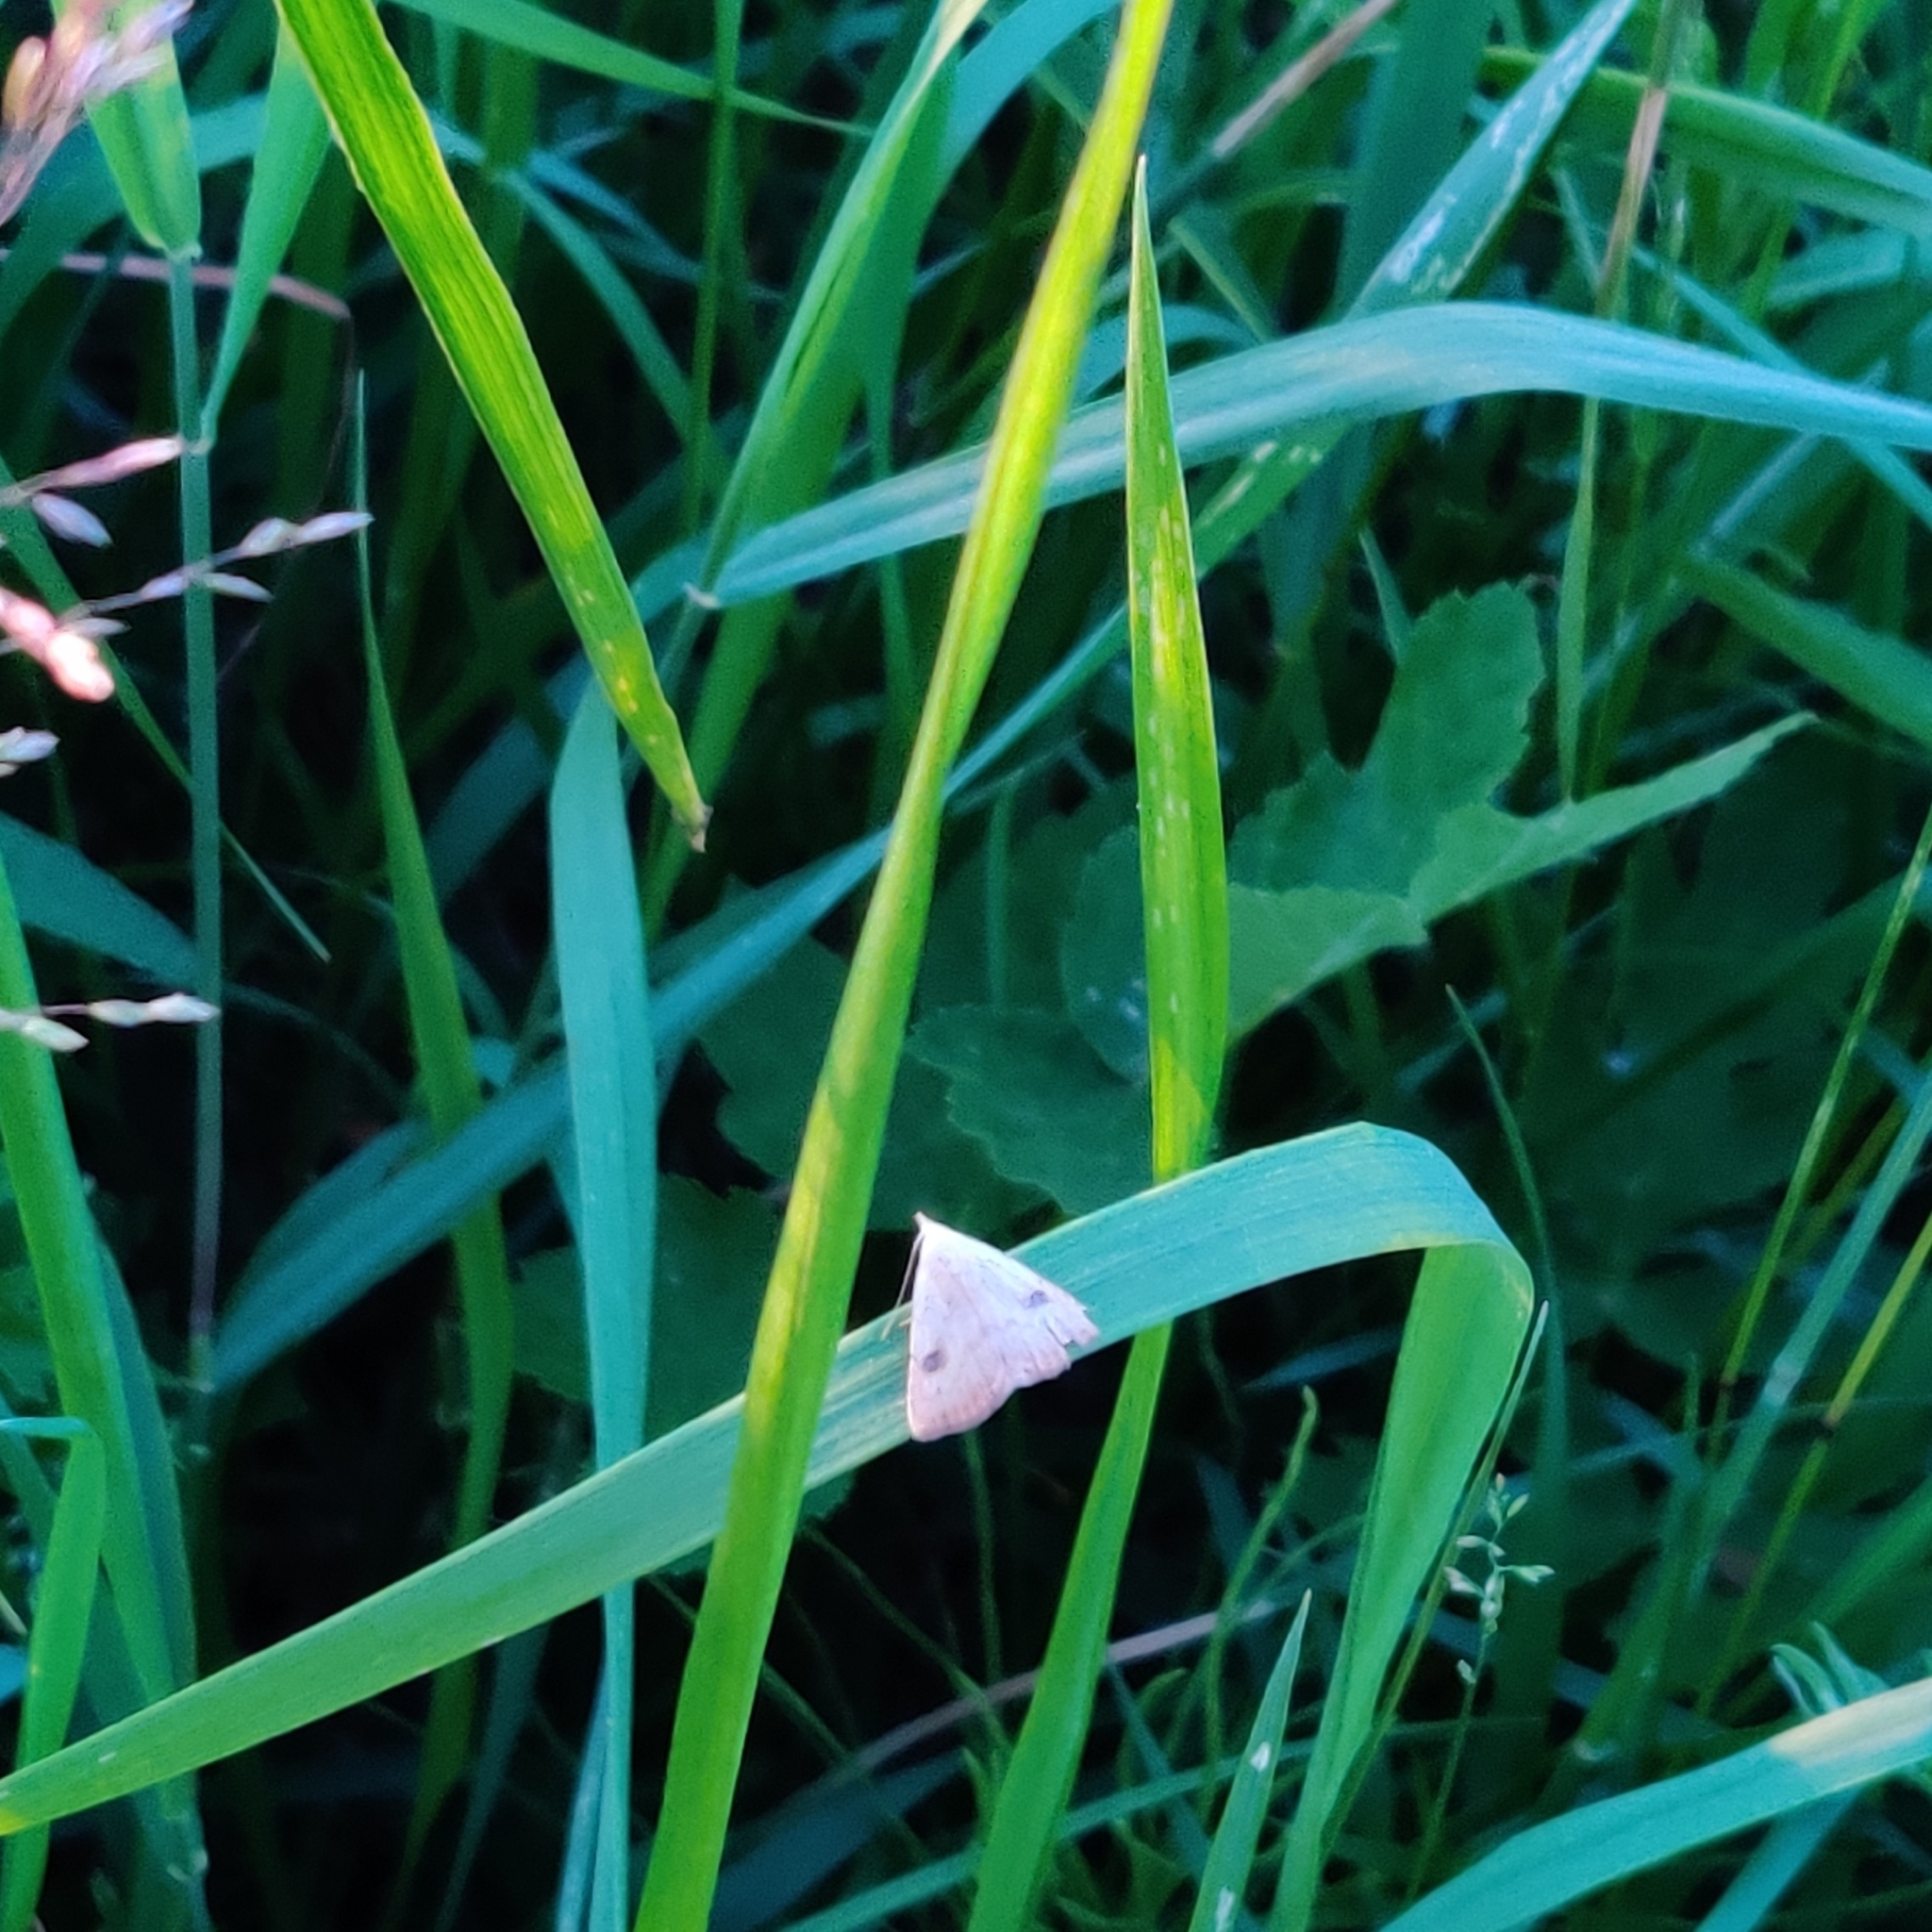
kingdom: Animalia
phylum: Arthropoda
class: Insecta
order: Lepidoptera
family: Erebidae
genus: Rivula
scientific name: Rivula sericealis
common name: Straw dot
